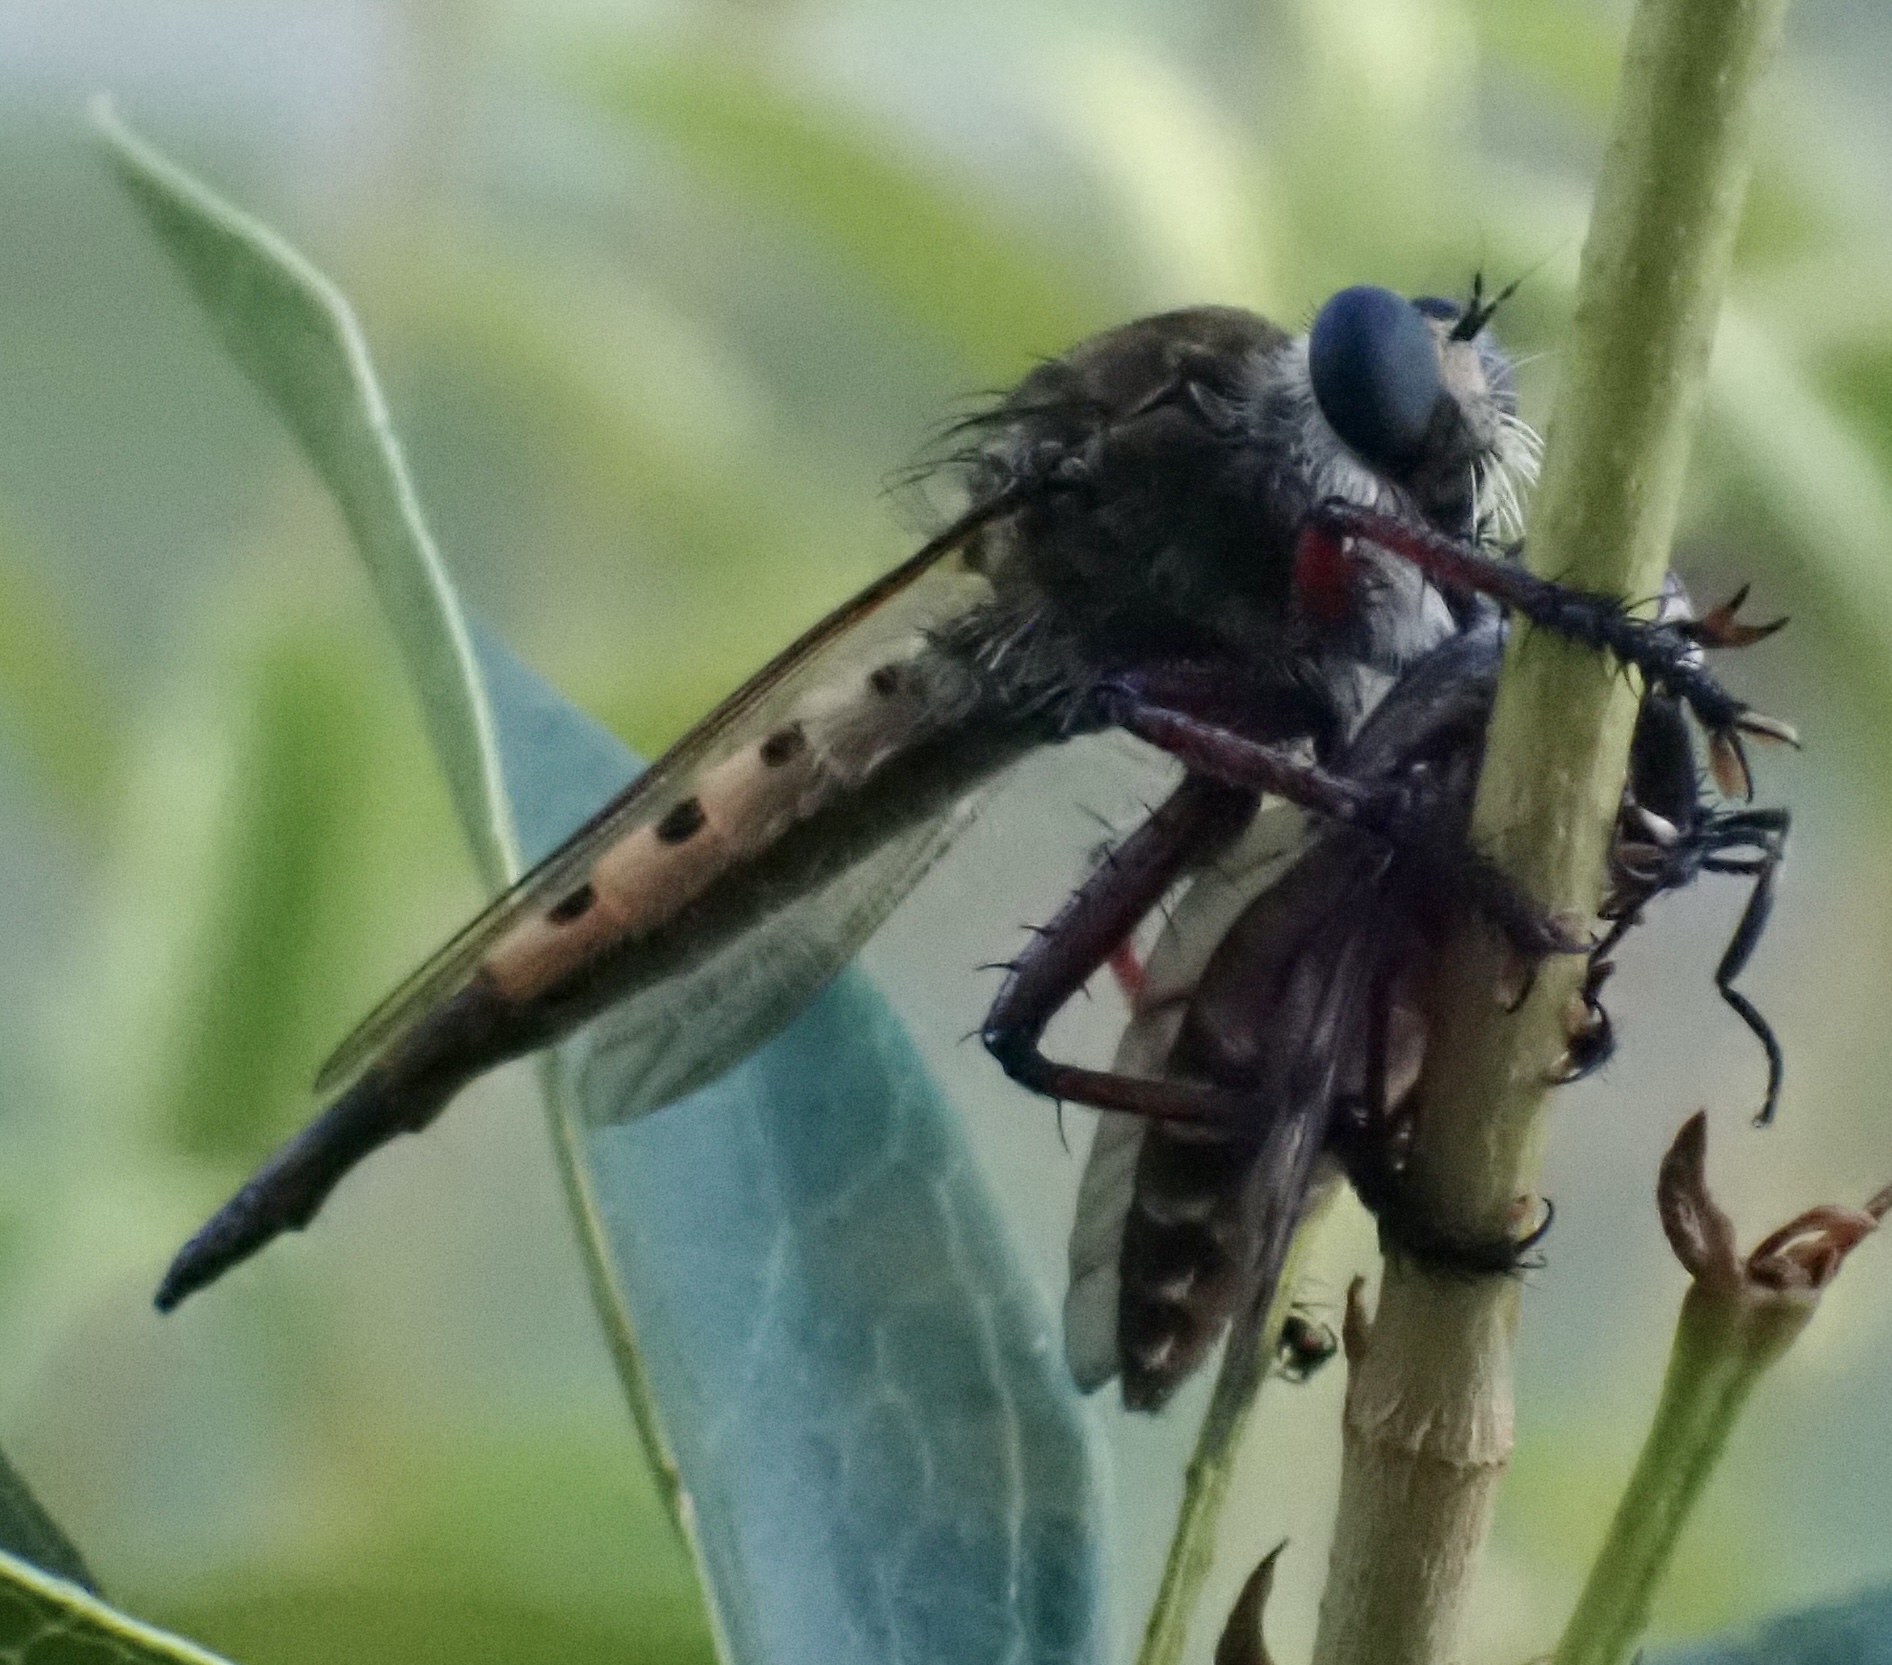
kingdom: Animalia
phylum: Arthropoda
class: Insecta
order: Diptera
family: Asilidae
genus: Promachus
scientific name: Promachus hinei
